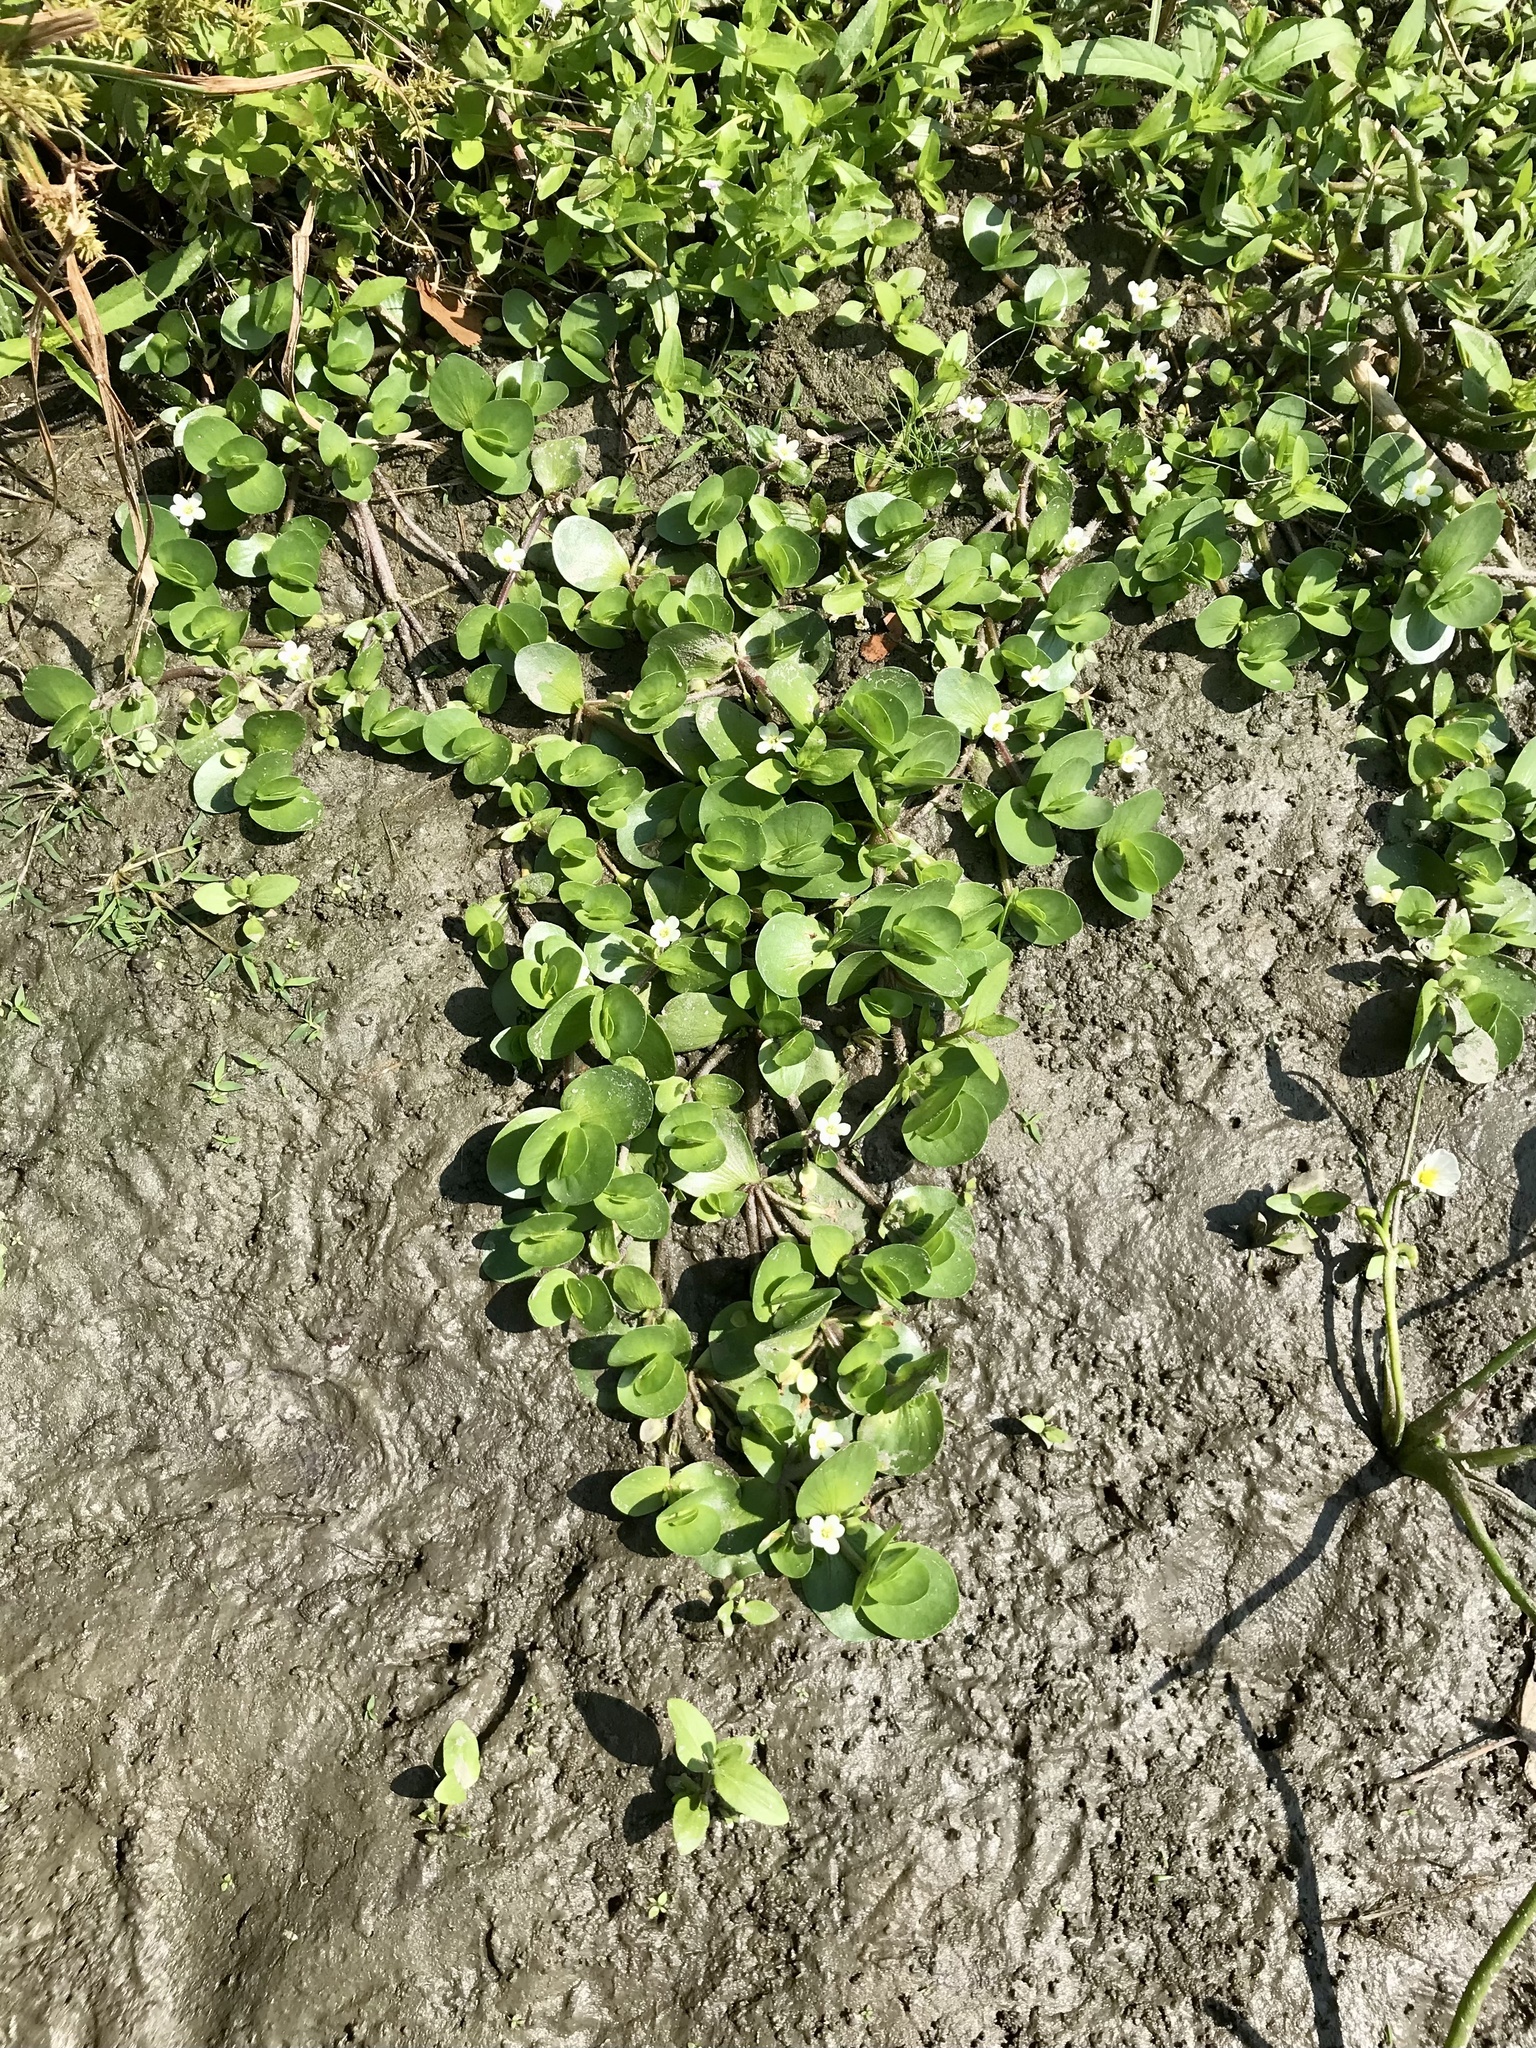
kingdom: Plantae
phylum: Tracheophyta
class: Magnoliopsida
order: Lamiales
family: Plantaginaceae
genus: Bacopa
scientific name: Bacopa rotundifolia
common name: Disc water hyssop
